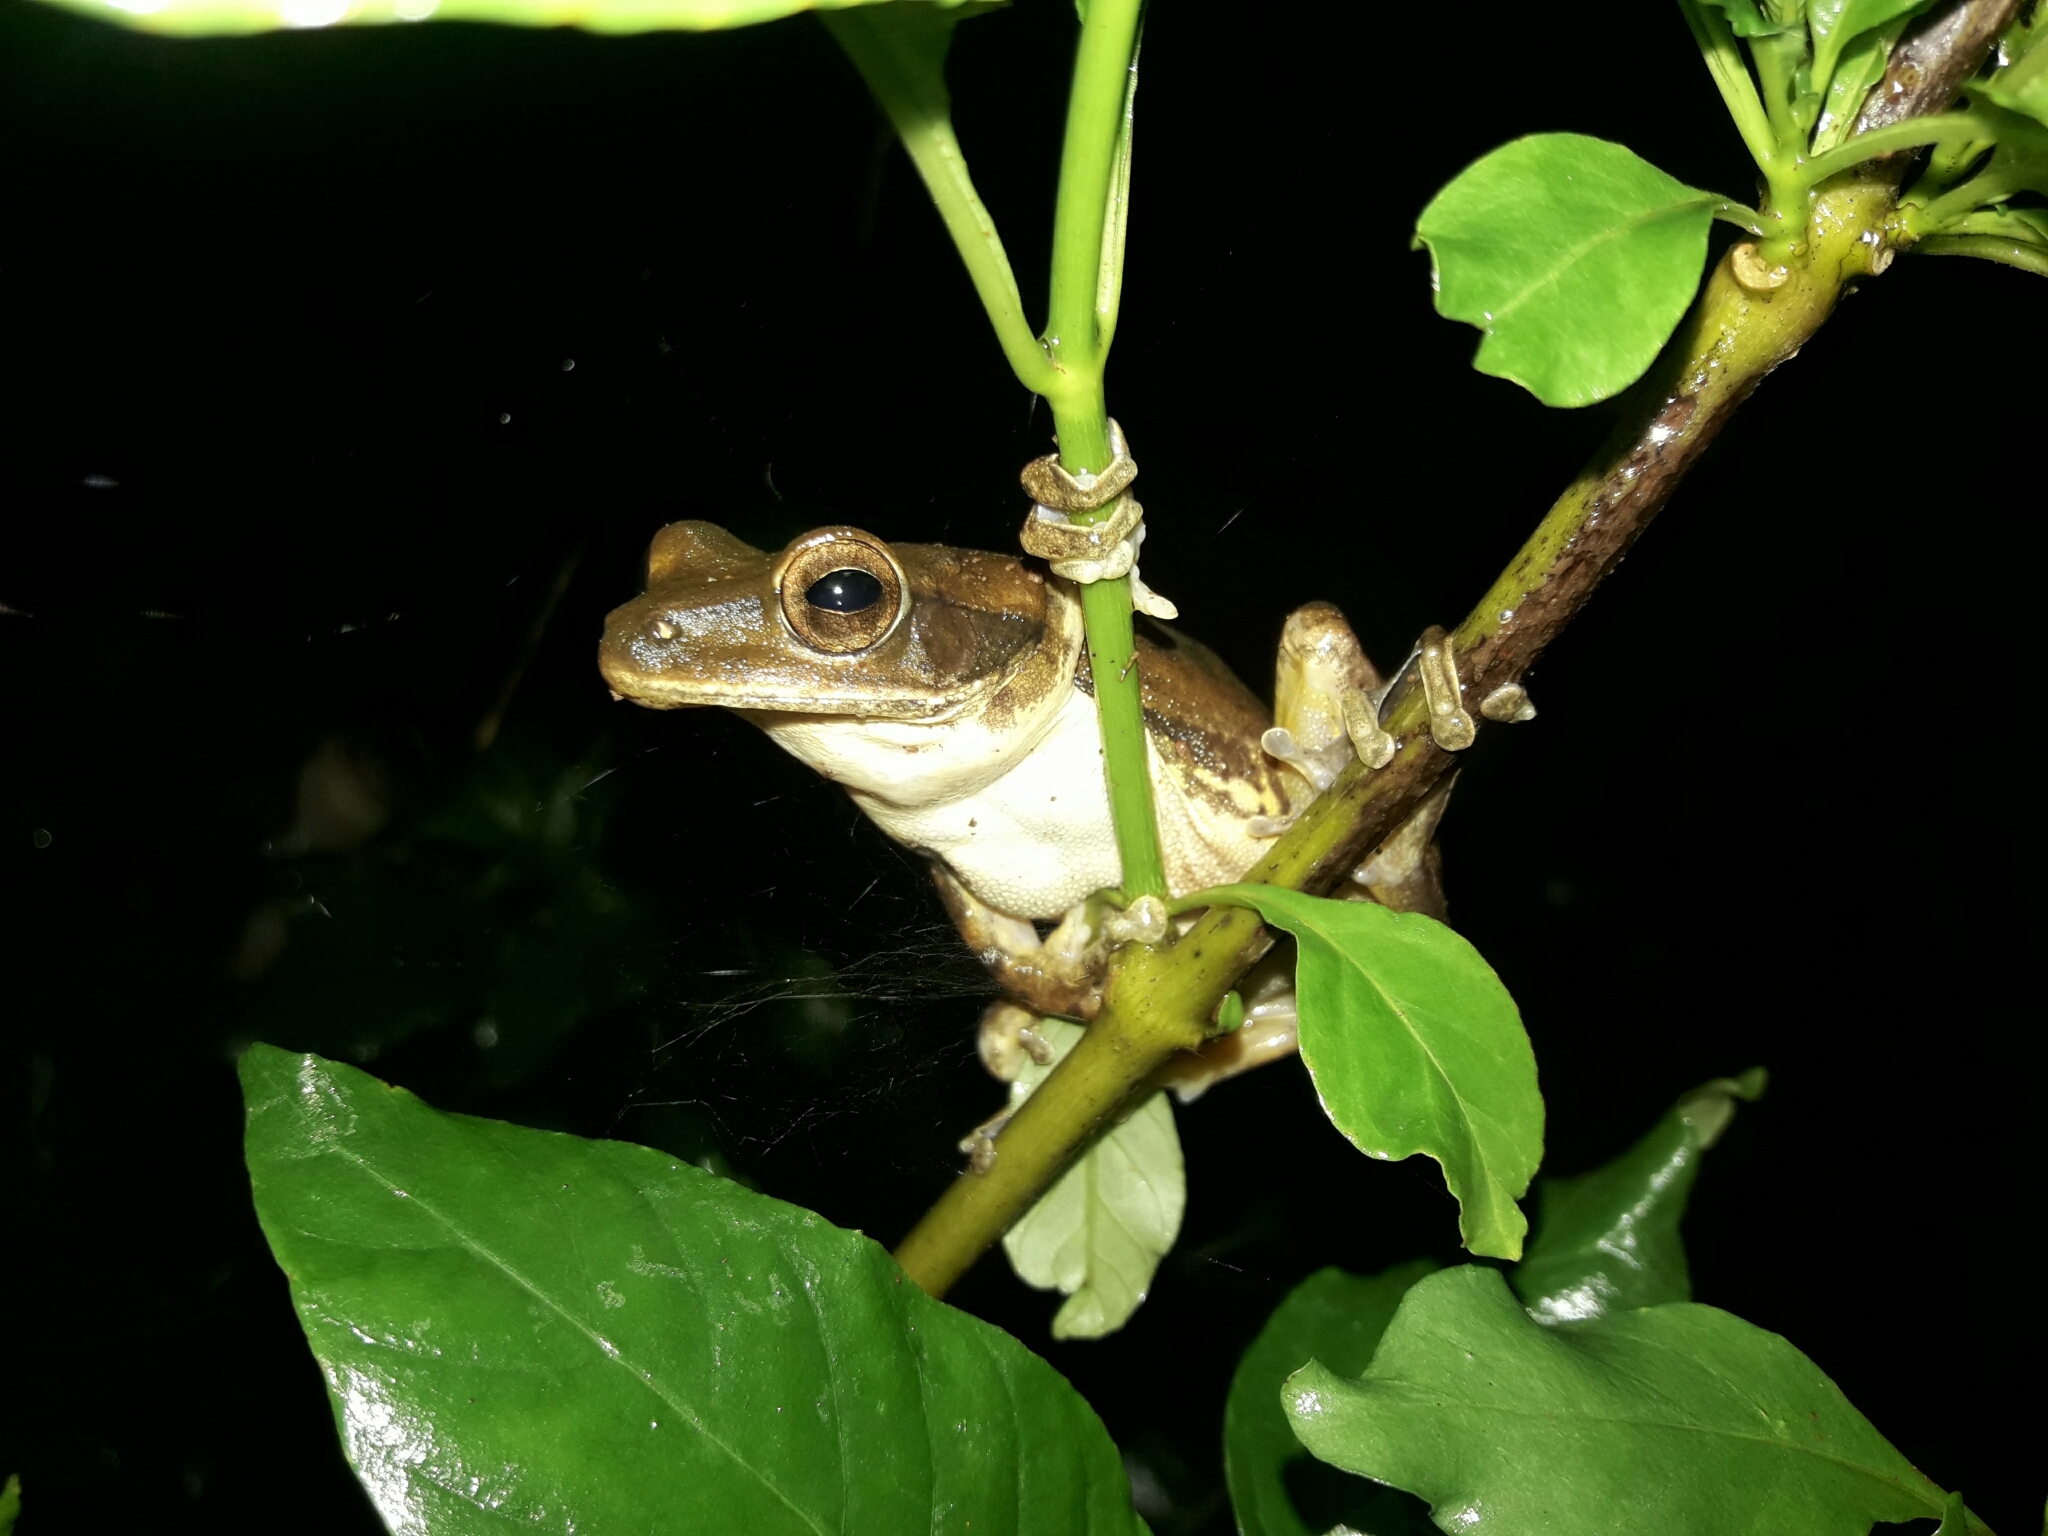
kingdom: Animalia
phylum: Chordata
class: Amphibia
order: Anura
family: Rhacophoridae
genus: Polypedates
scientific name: Polypedates maculatus
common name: Himalayan tree frog
